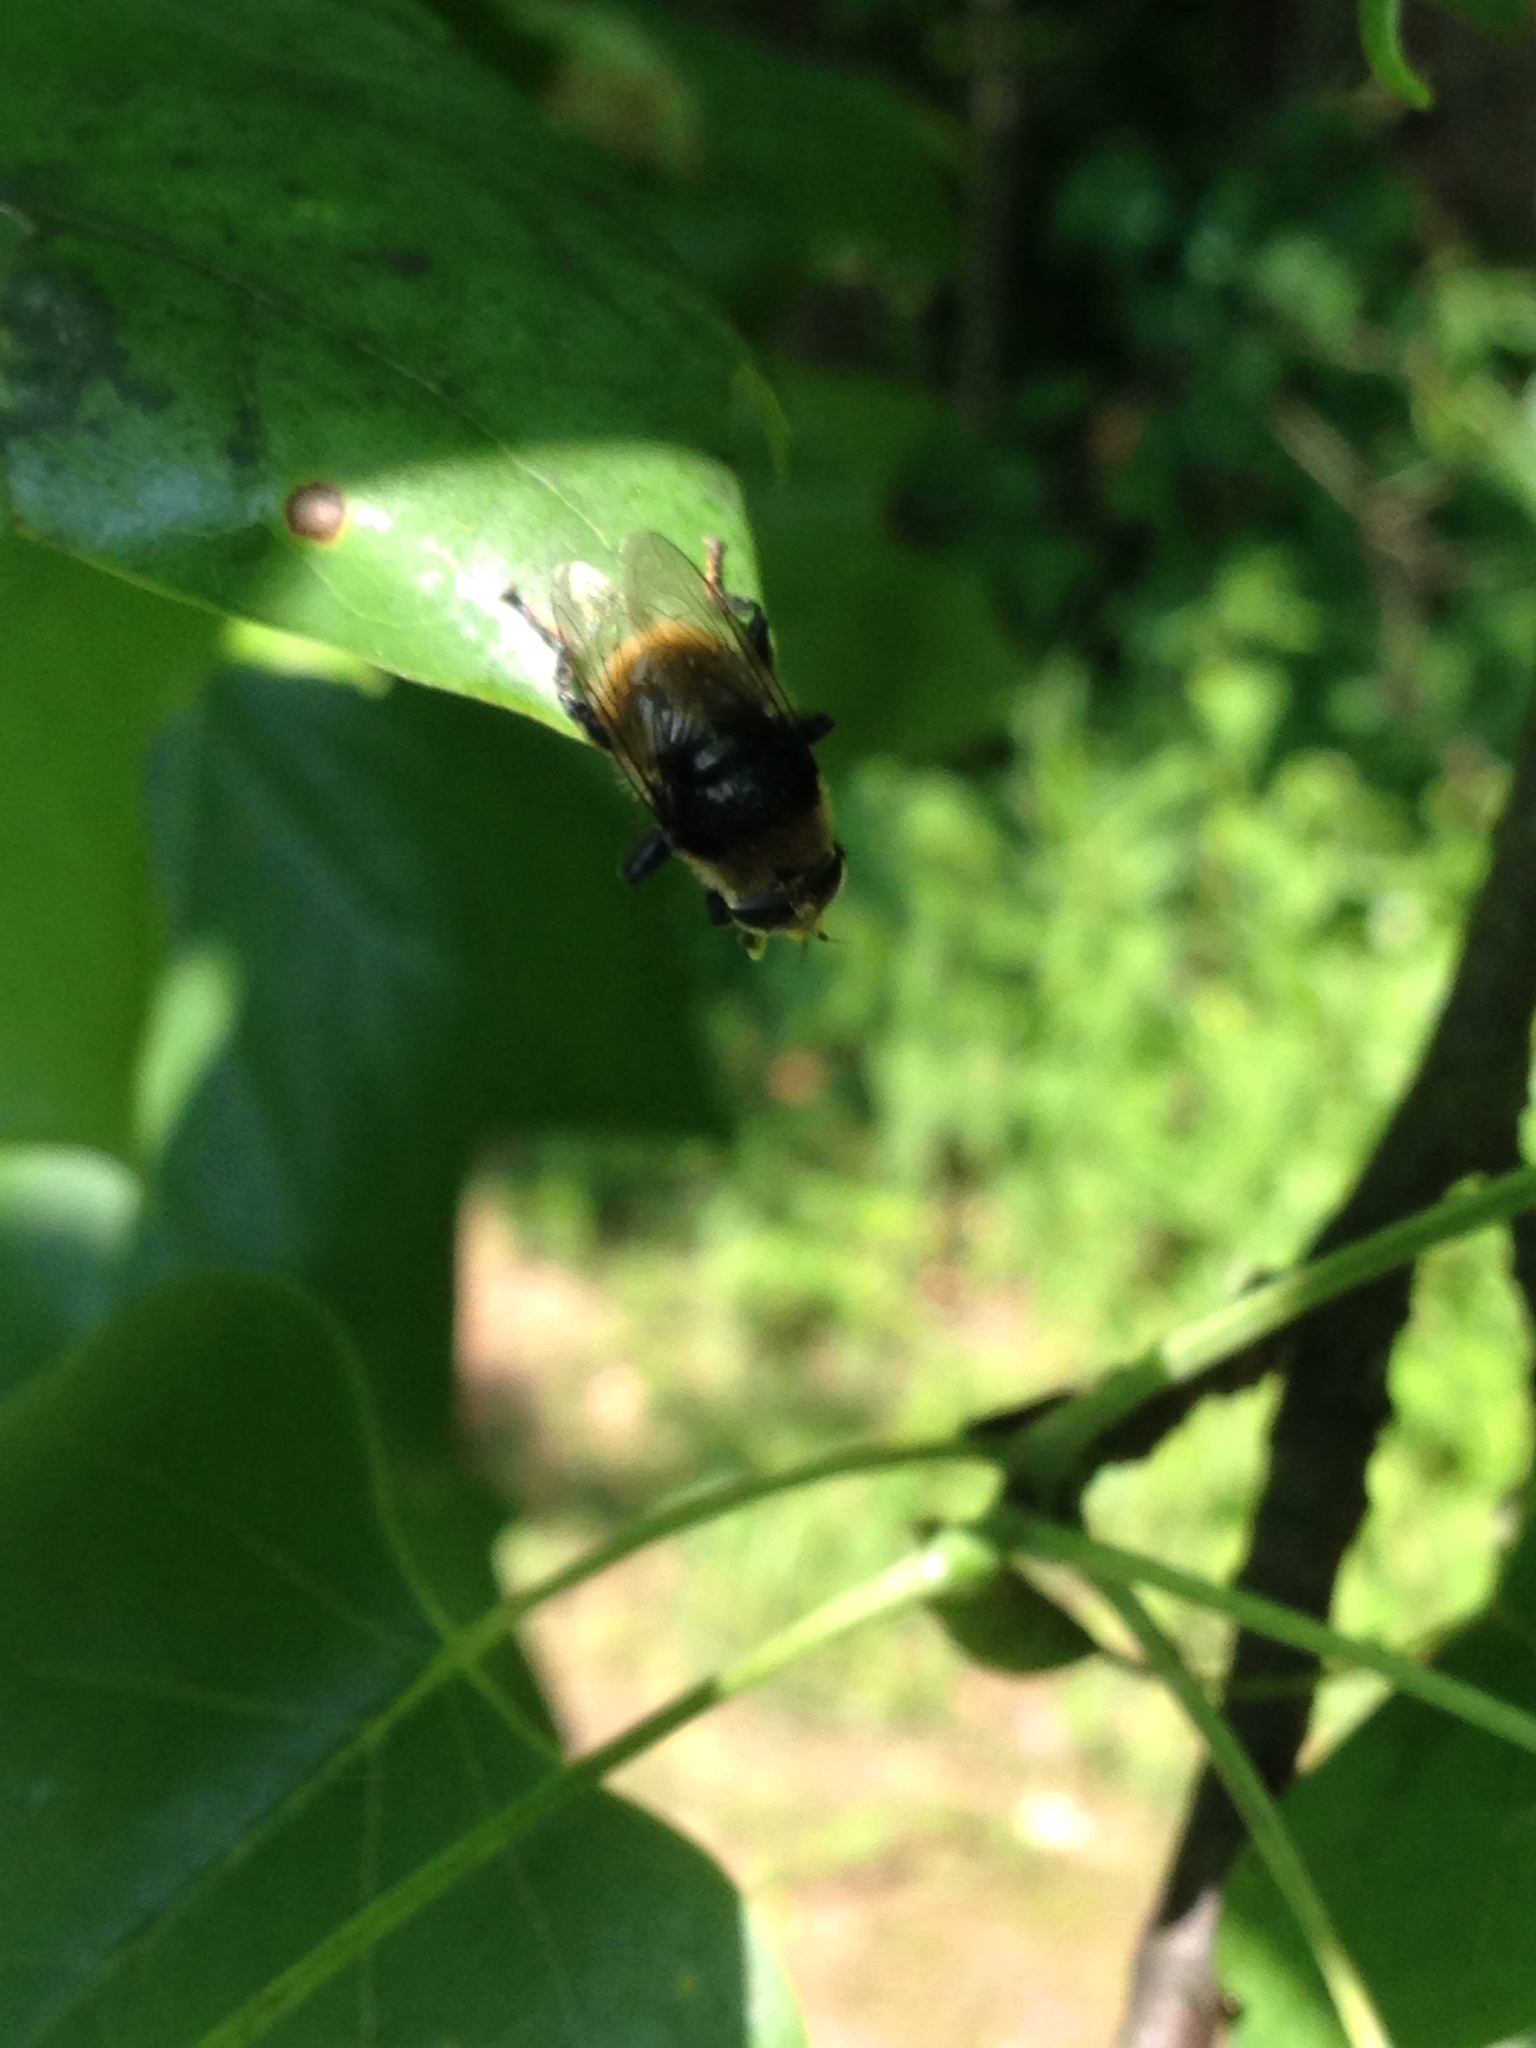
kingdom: Animalia
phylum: Arthropoda
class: Insecta
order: Diptera
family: Syrphidae
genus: Merodon
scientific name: Merodon equestris
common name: Greater bulb-fly
